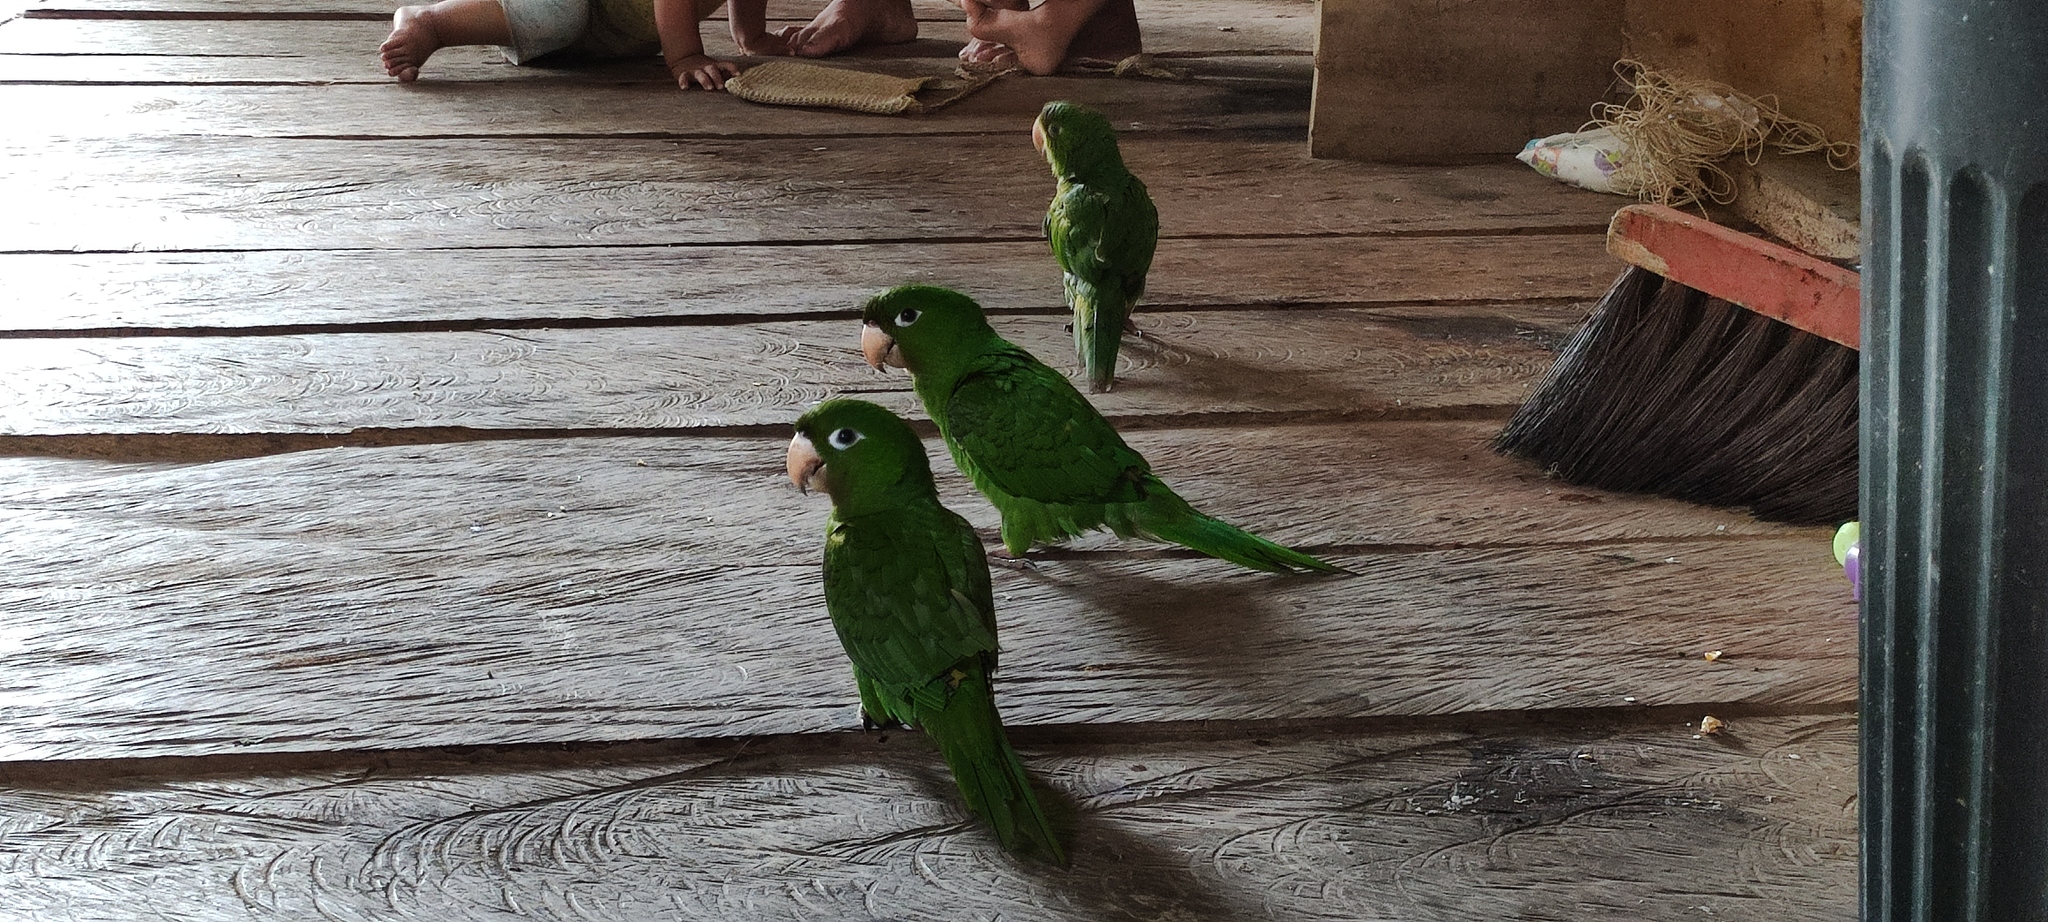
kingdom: Animalia
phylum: Chordata
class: Aves
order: Psittaciformes
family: Psittacidae
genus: Aratinga
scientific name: Aratinga leucophthalma
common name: White-eyed parakeet
